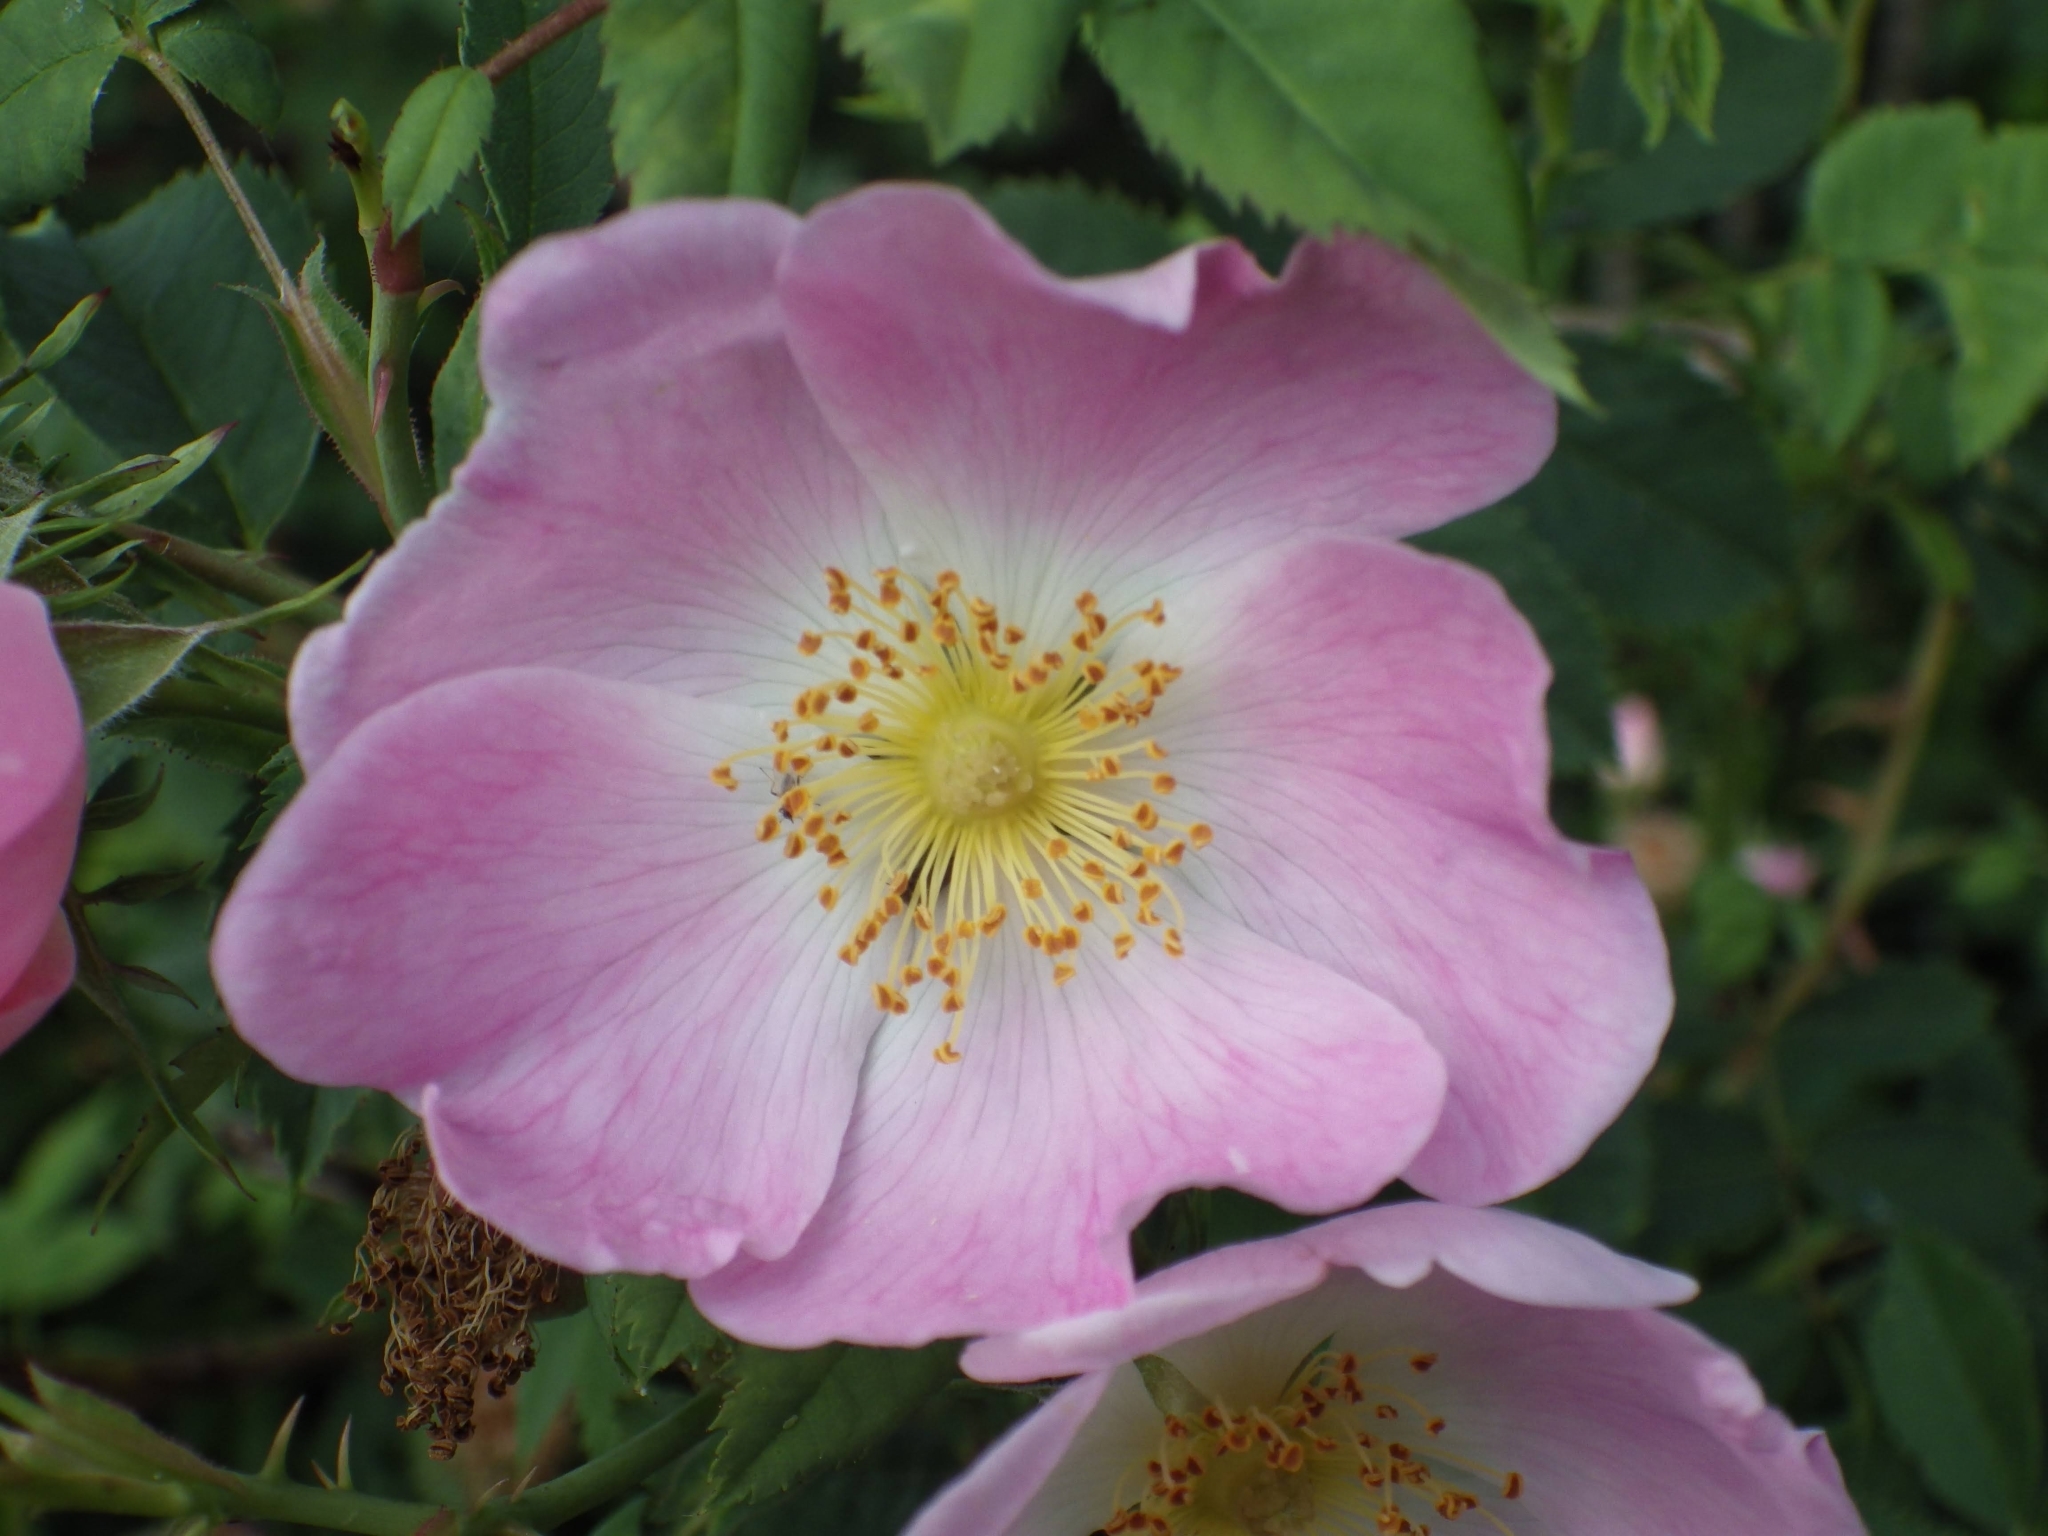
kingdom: Plantae
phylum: Tracheophyta
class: Magnoliopsida
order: Rosales
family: Rosaceae
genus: Rosa
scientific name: Rosa rubiginosa
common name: Sweet-briar
